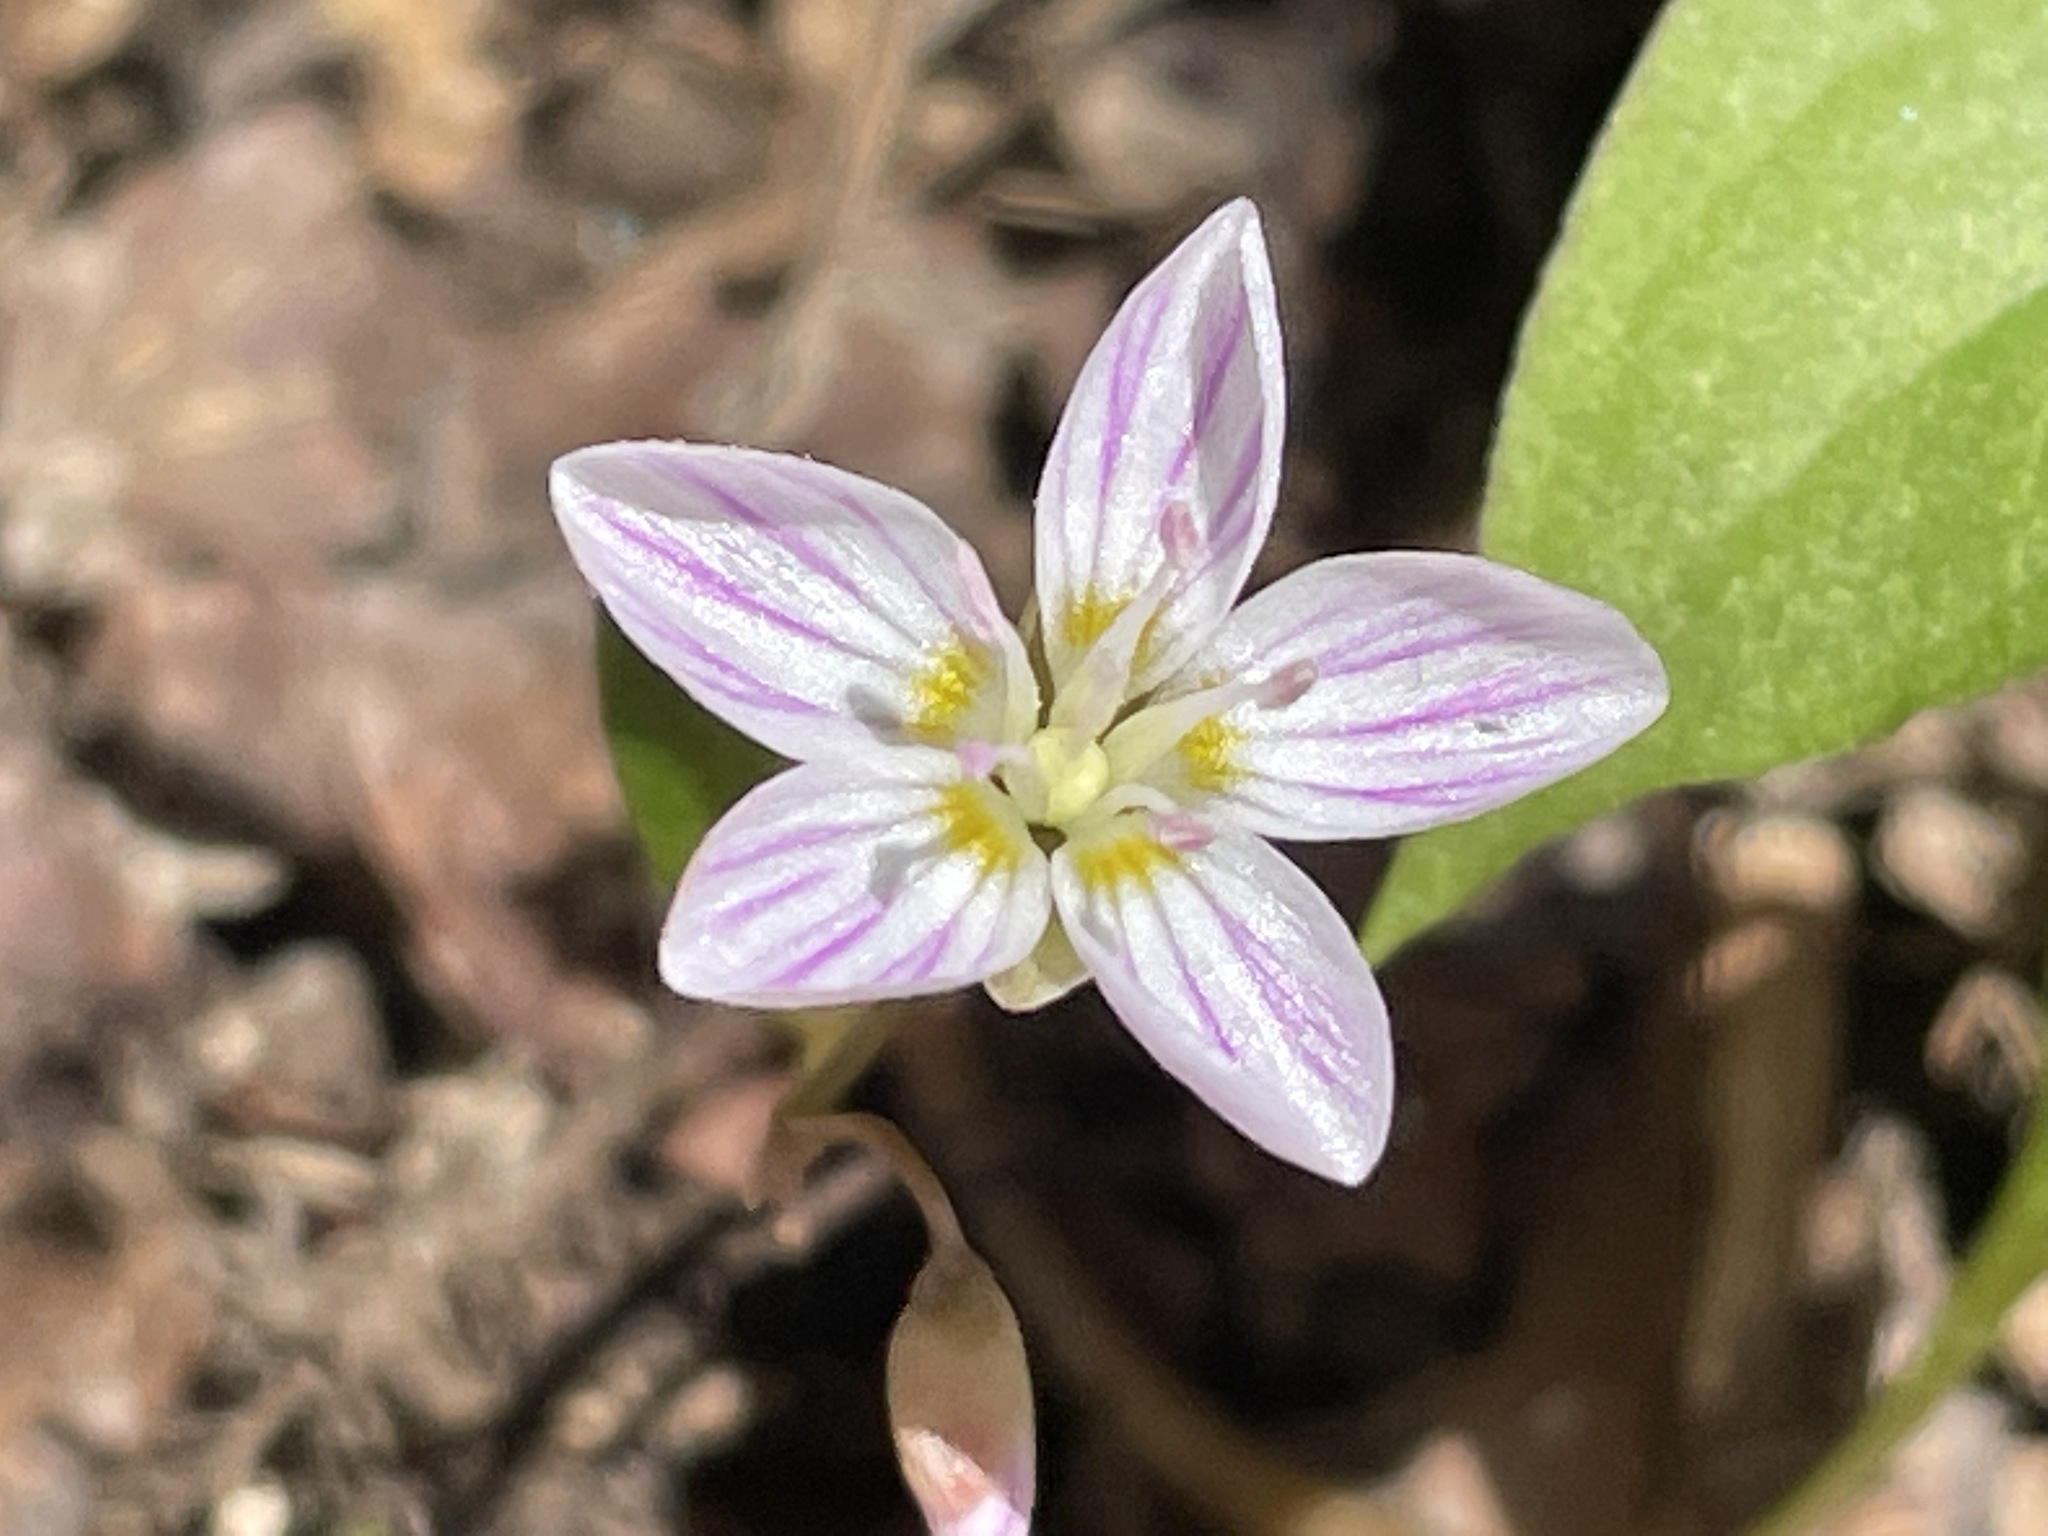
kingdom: Plantae
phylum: Tracheophyta
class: Magnoliopsida
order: Caryophyllales
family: Montiaceae
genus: Claytonia
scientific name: Claytonia caroliniana
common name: Carolina spring beauty
